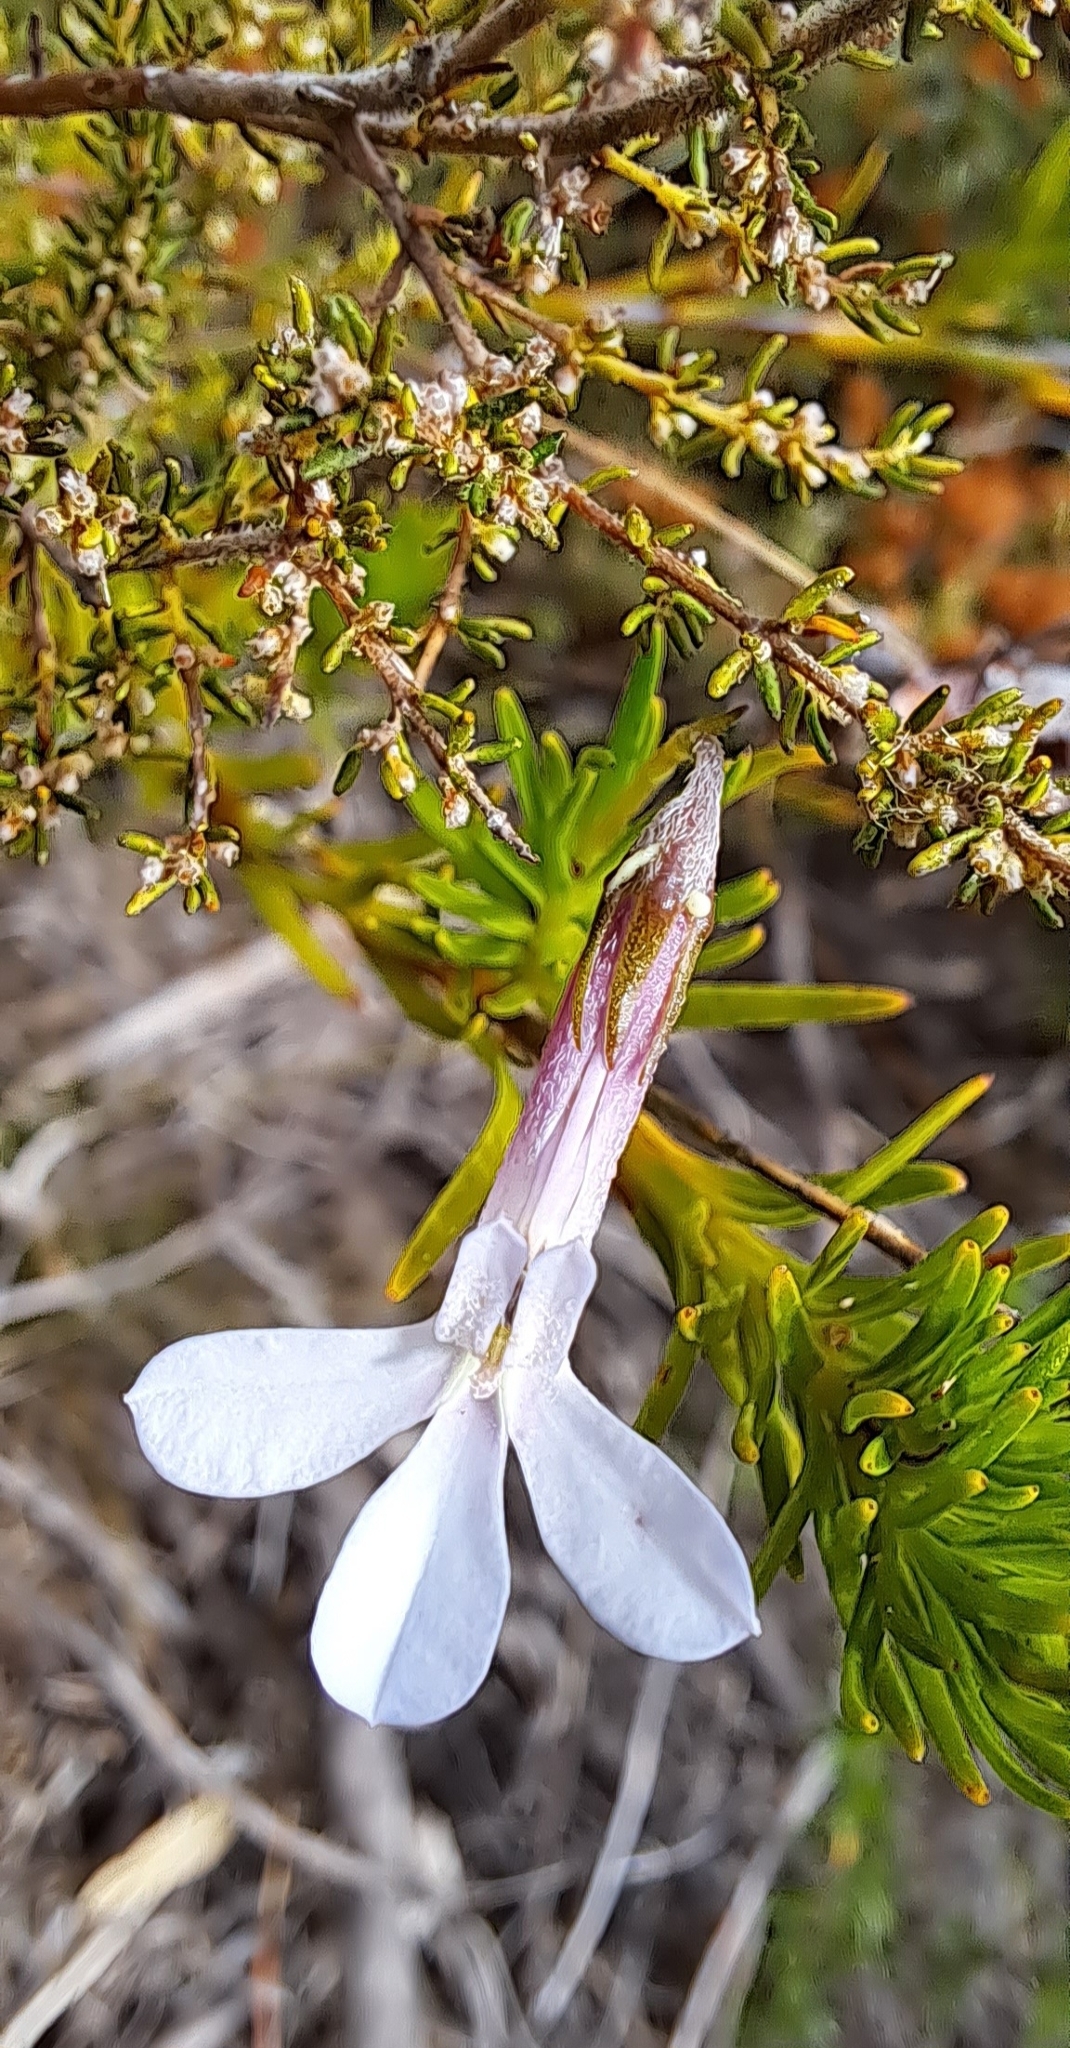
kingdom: Plantae
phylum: Tracheophyta
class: Magnoliopsida
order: Asterales
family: Campanulaceae
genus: Lobelia
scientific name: Lobelia pinifolia
